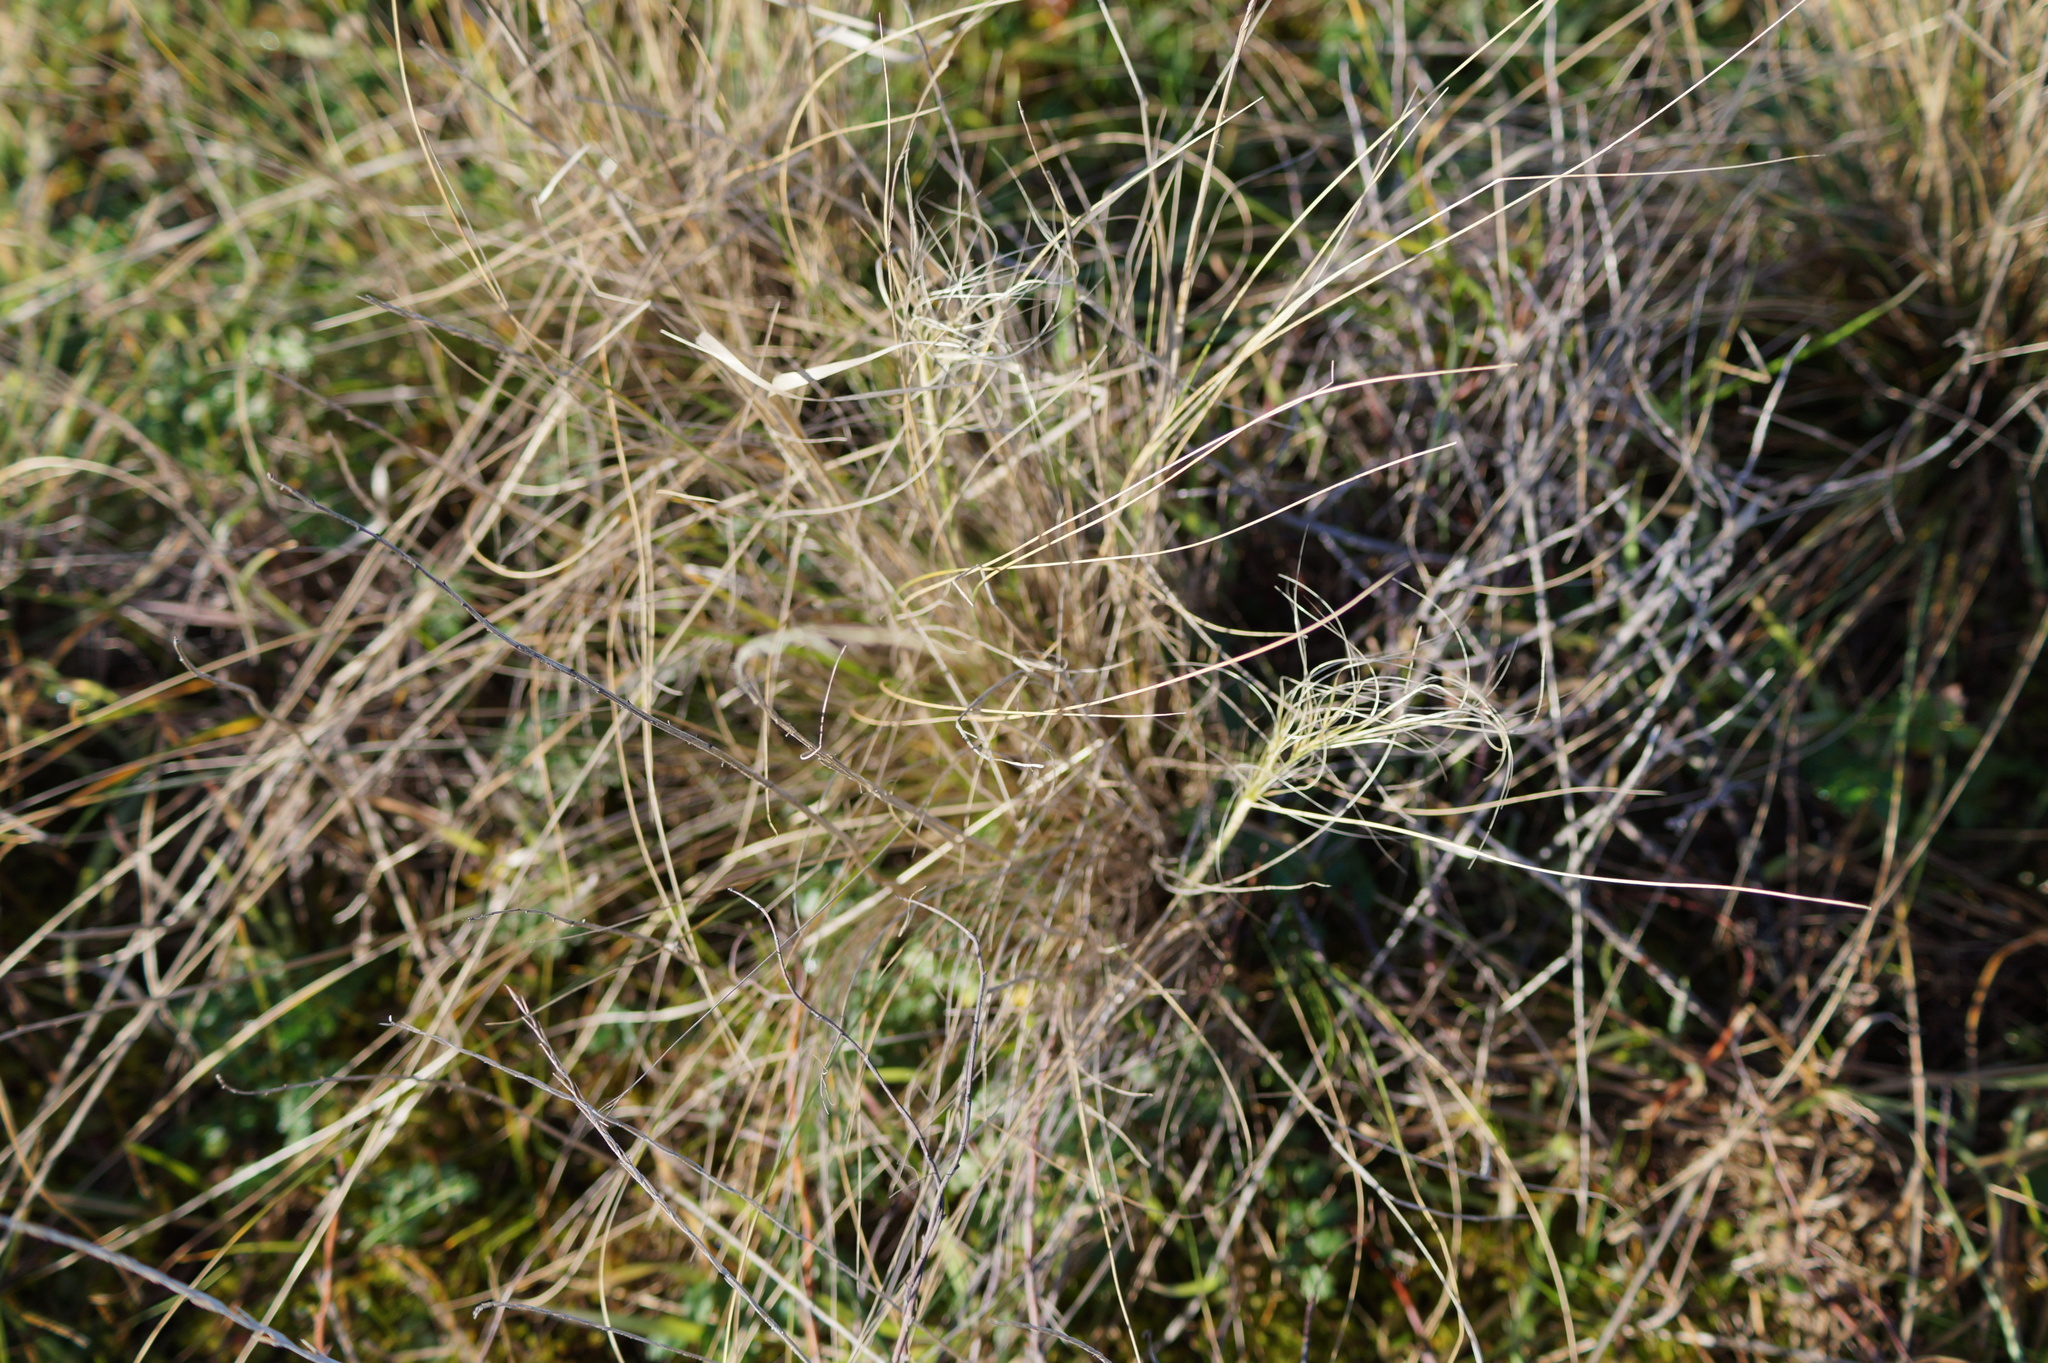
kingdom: Plantae
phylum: Tracheophyta
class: Liliopsida
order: Poales
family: Poaceae
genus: Austrostipa
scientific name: Austrostipa stuposa
